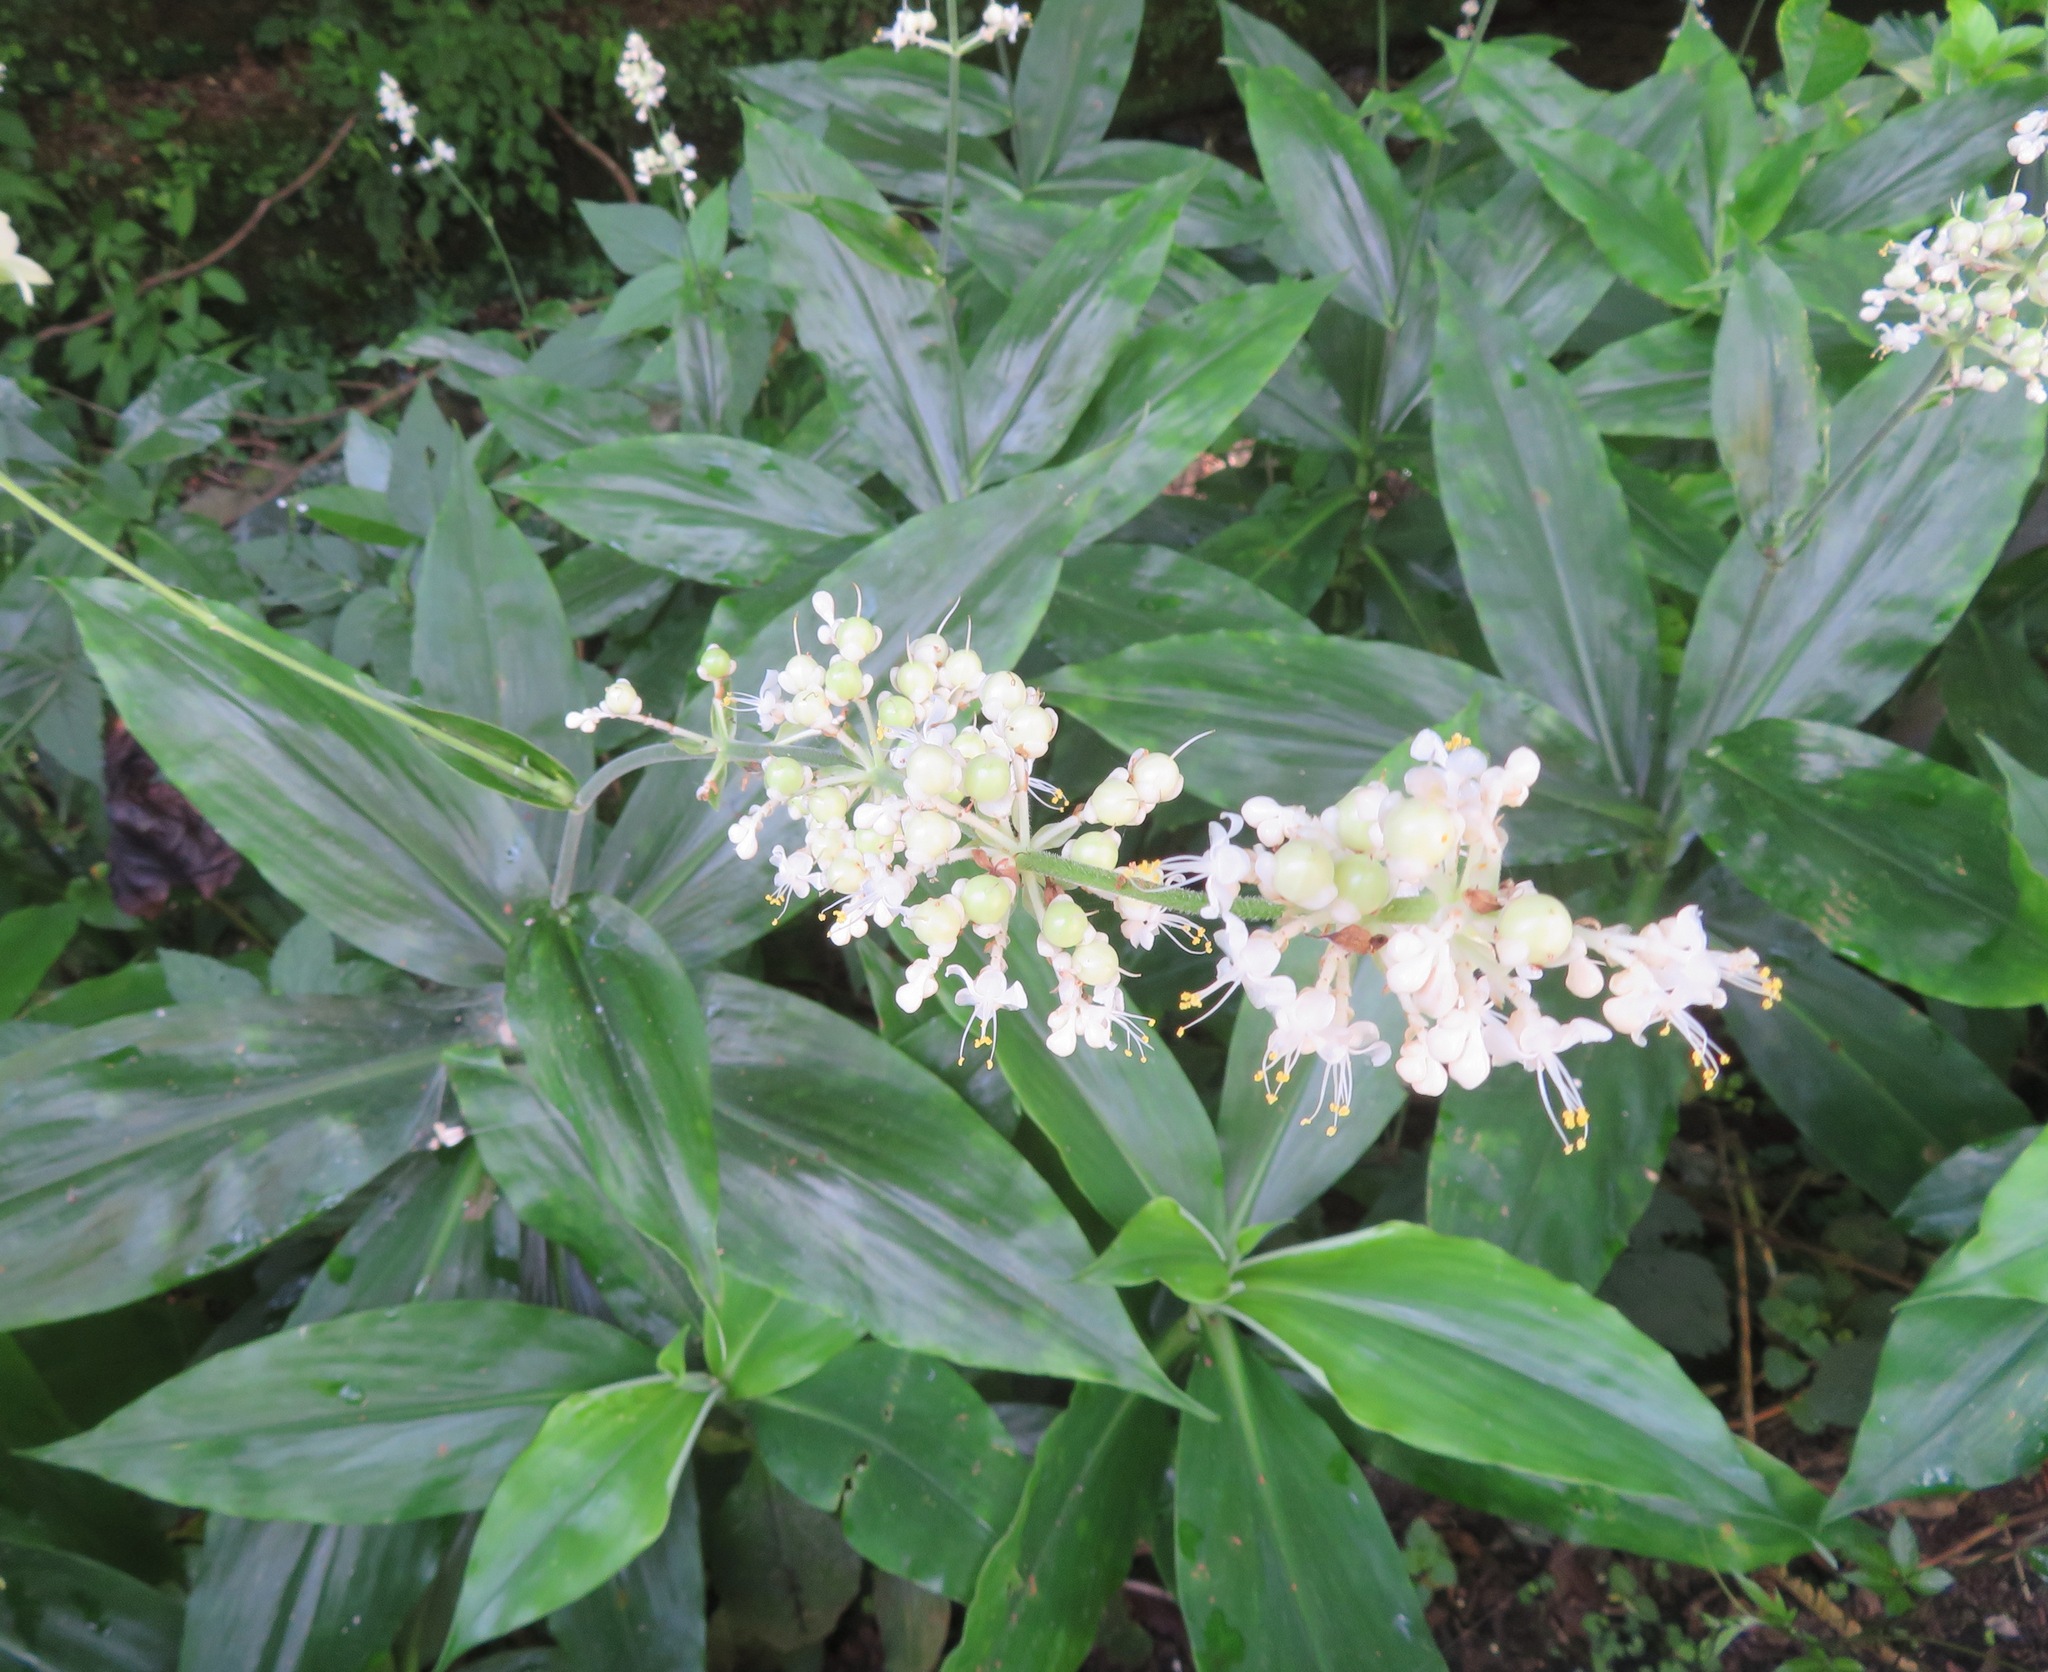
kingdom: Plantae
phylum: Tracheophyta
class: Liliopsida
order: Commelinales
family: Commelinaceae
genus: Pollia
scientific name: Pollia japonica
